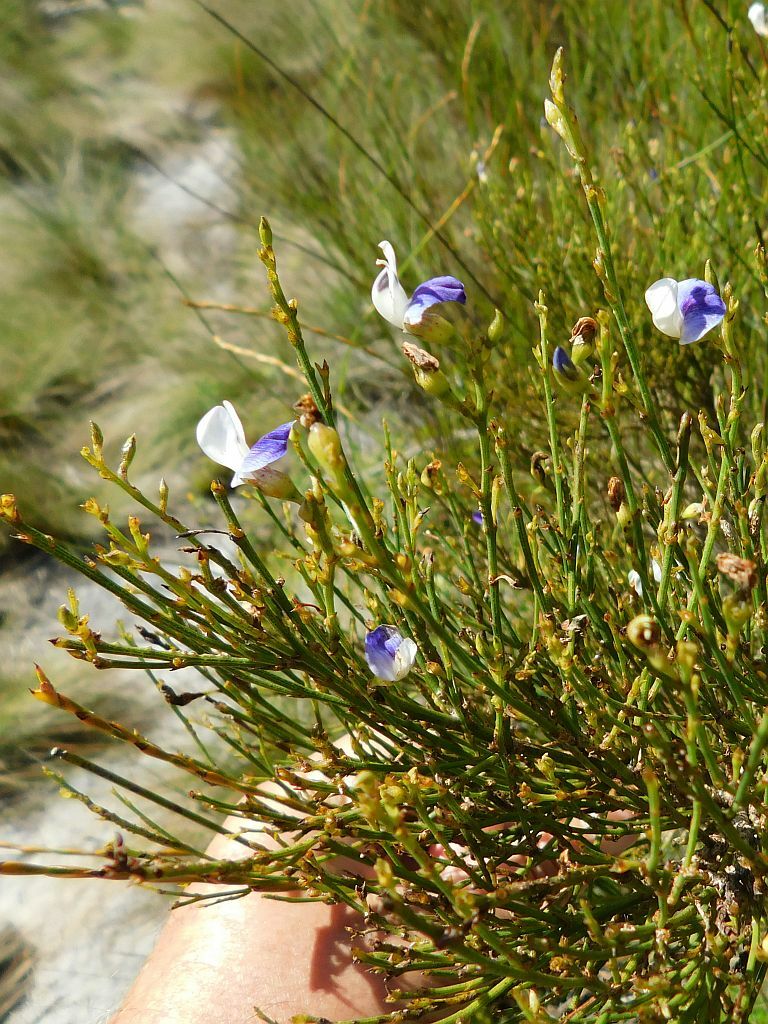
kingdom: Plantae
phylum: Tracheophyta
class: Magnoliopsida
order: Fabales
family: Fabaceae
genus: Psoralea
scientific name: Psoralea usitata
